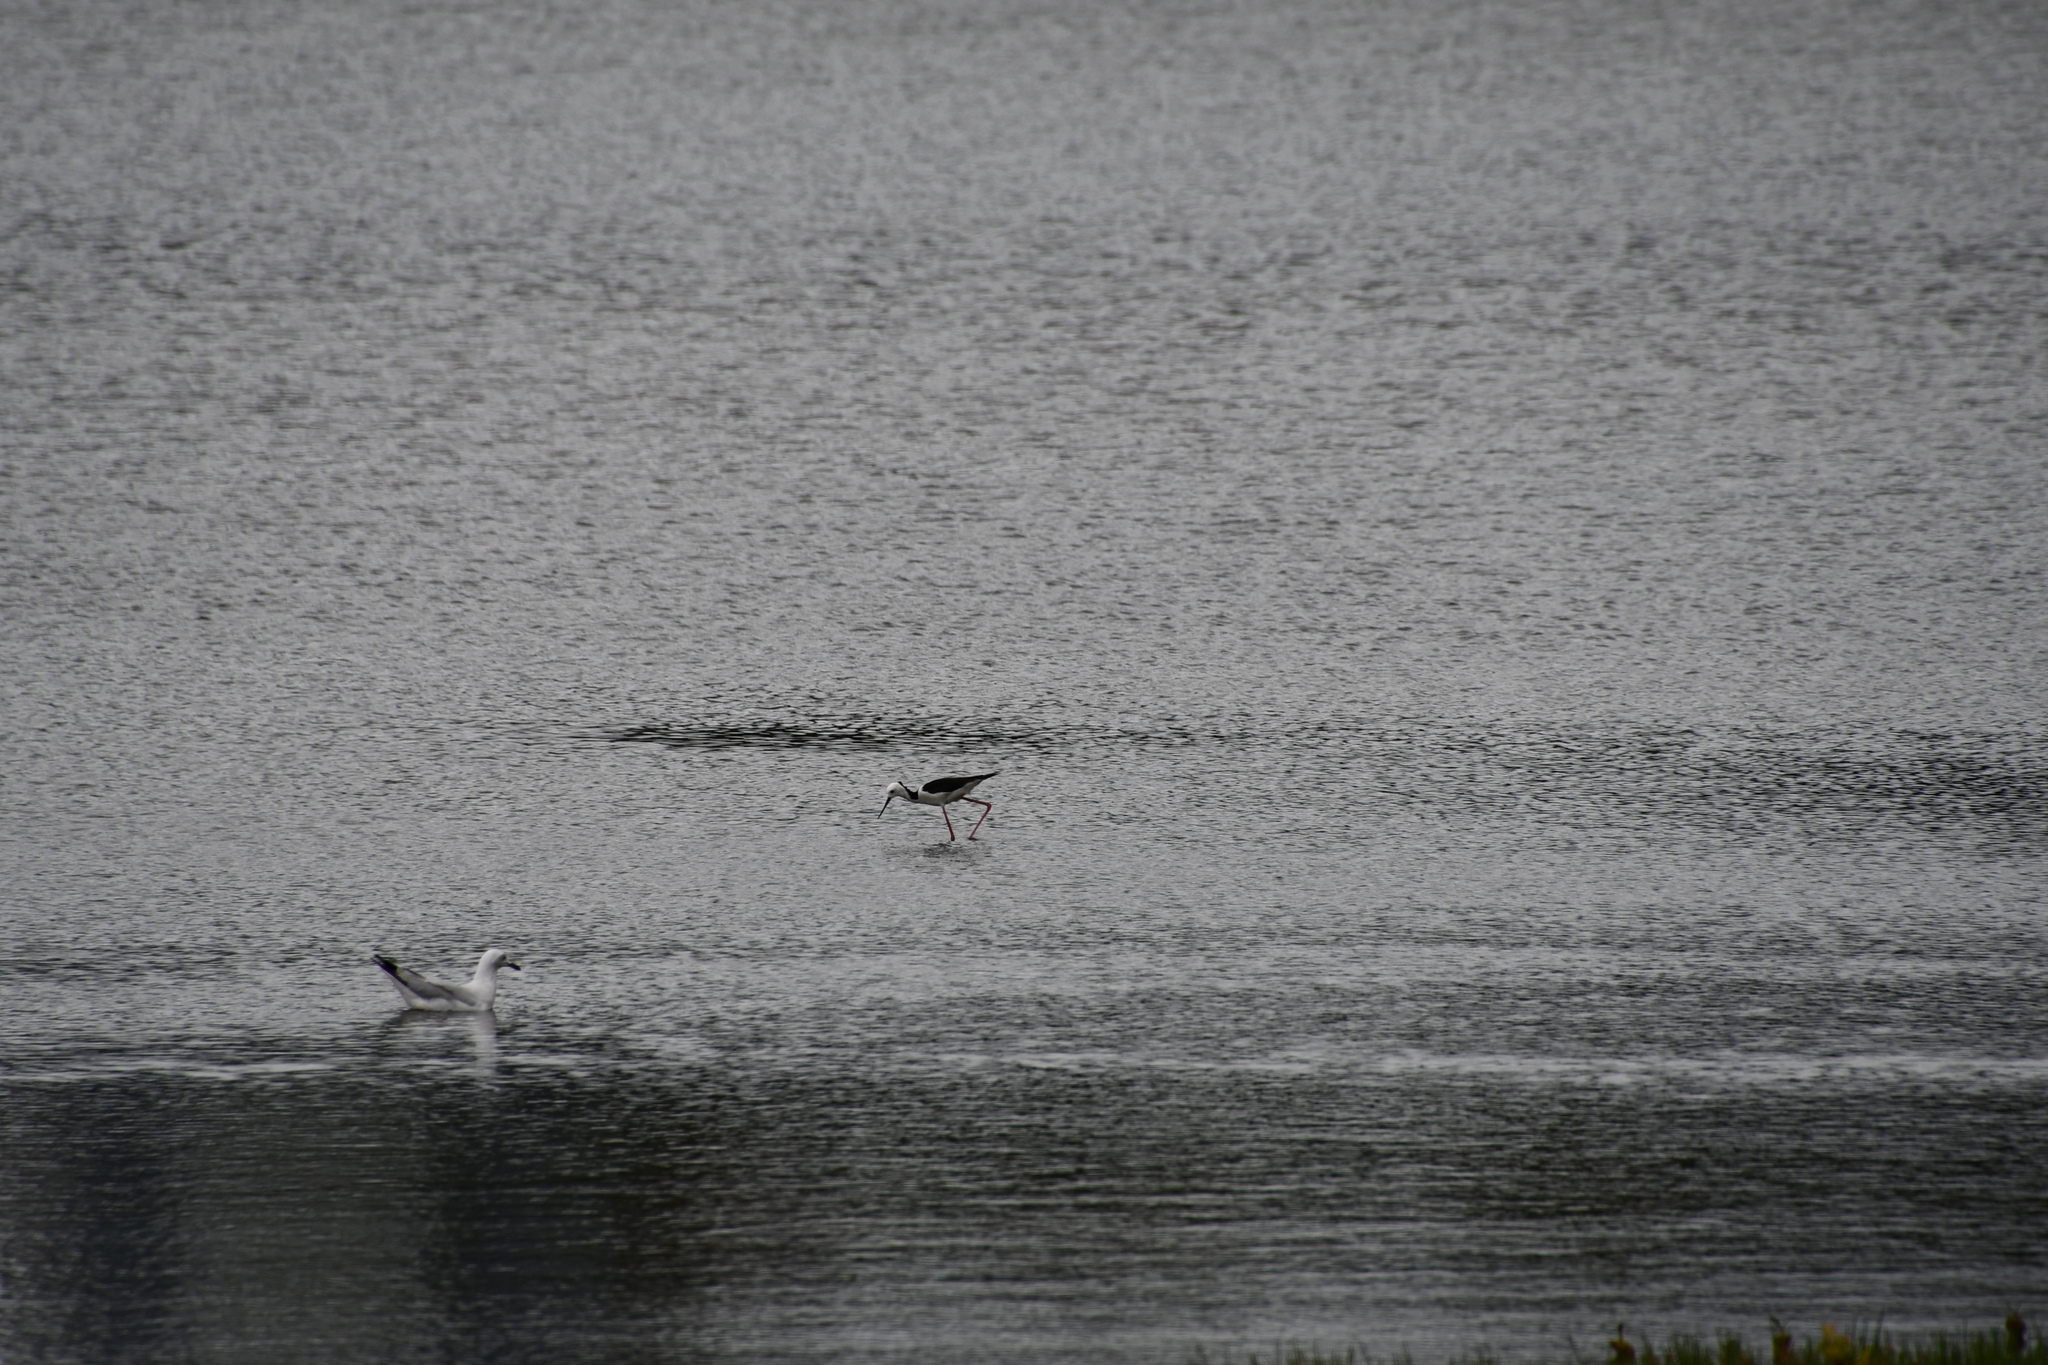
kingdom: Animalia
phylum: Chordata
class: Aves
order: Charadriiformes
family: Recurvirostridae
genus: Himantopus
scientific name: Himantopus leucocephalus
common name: White-headed stilt
